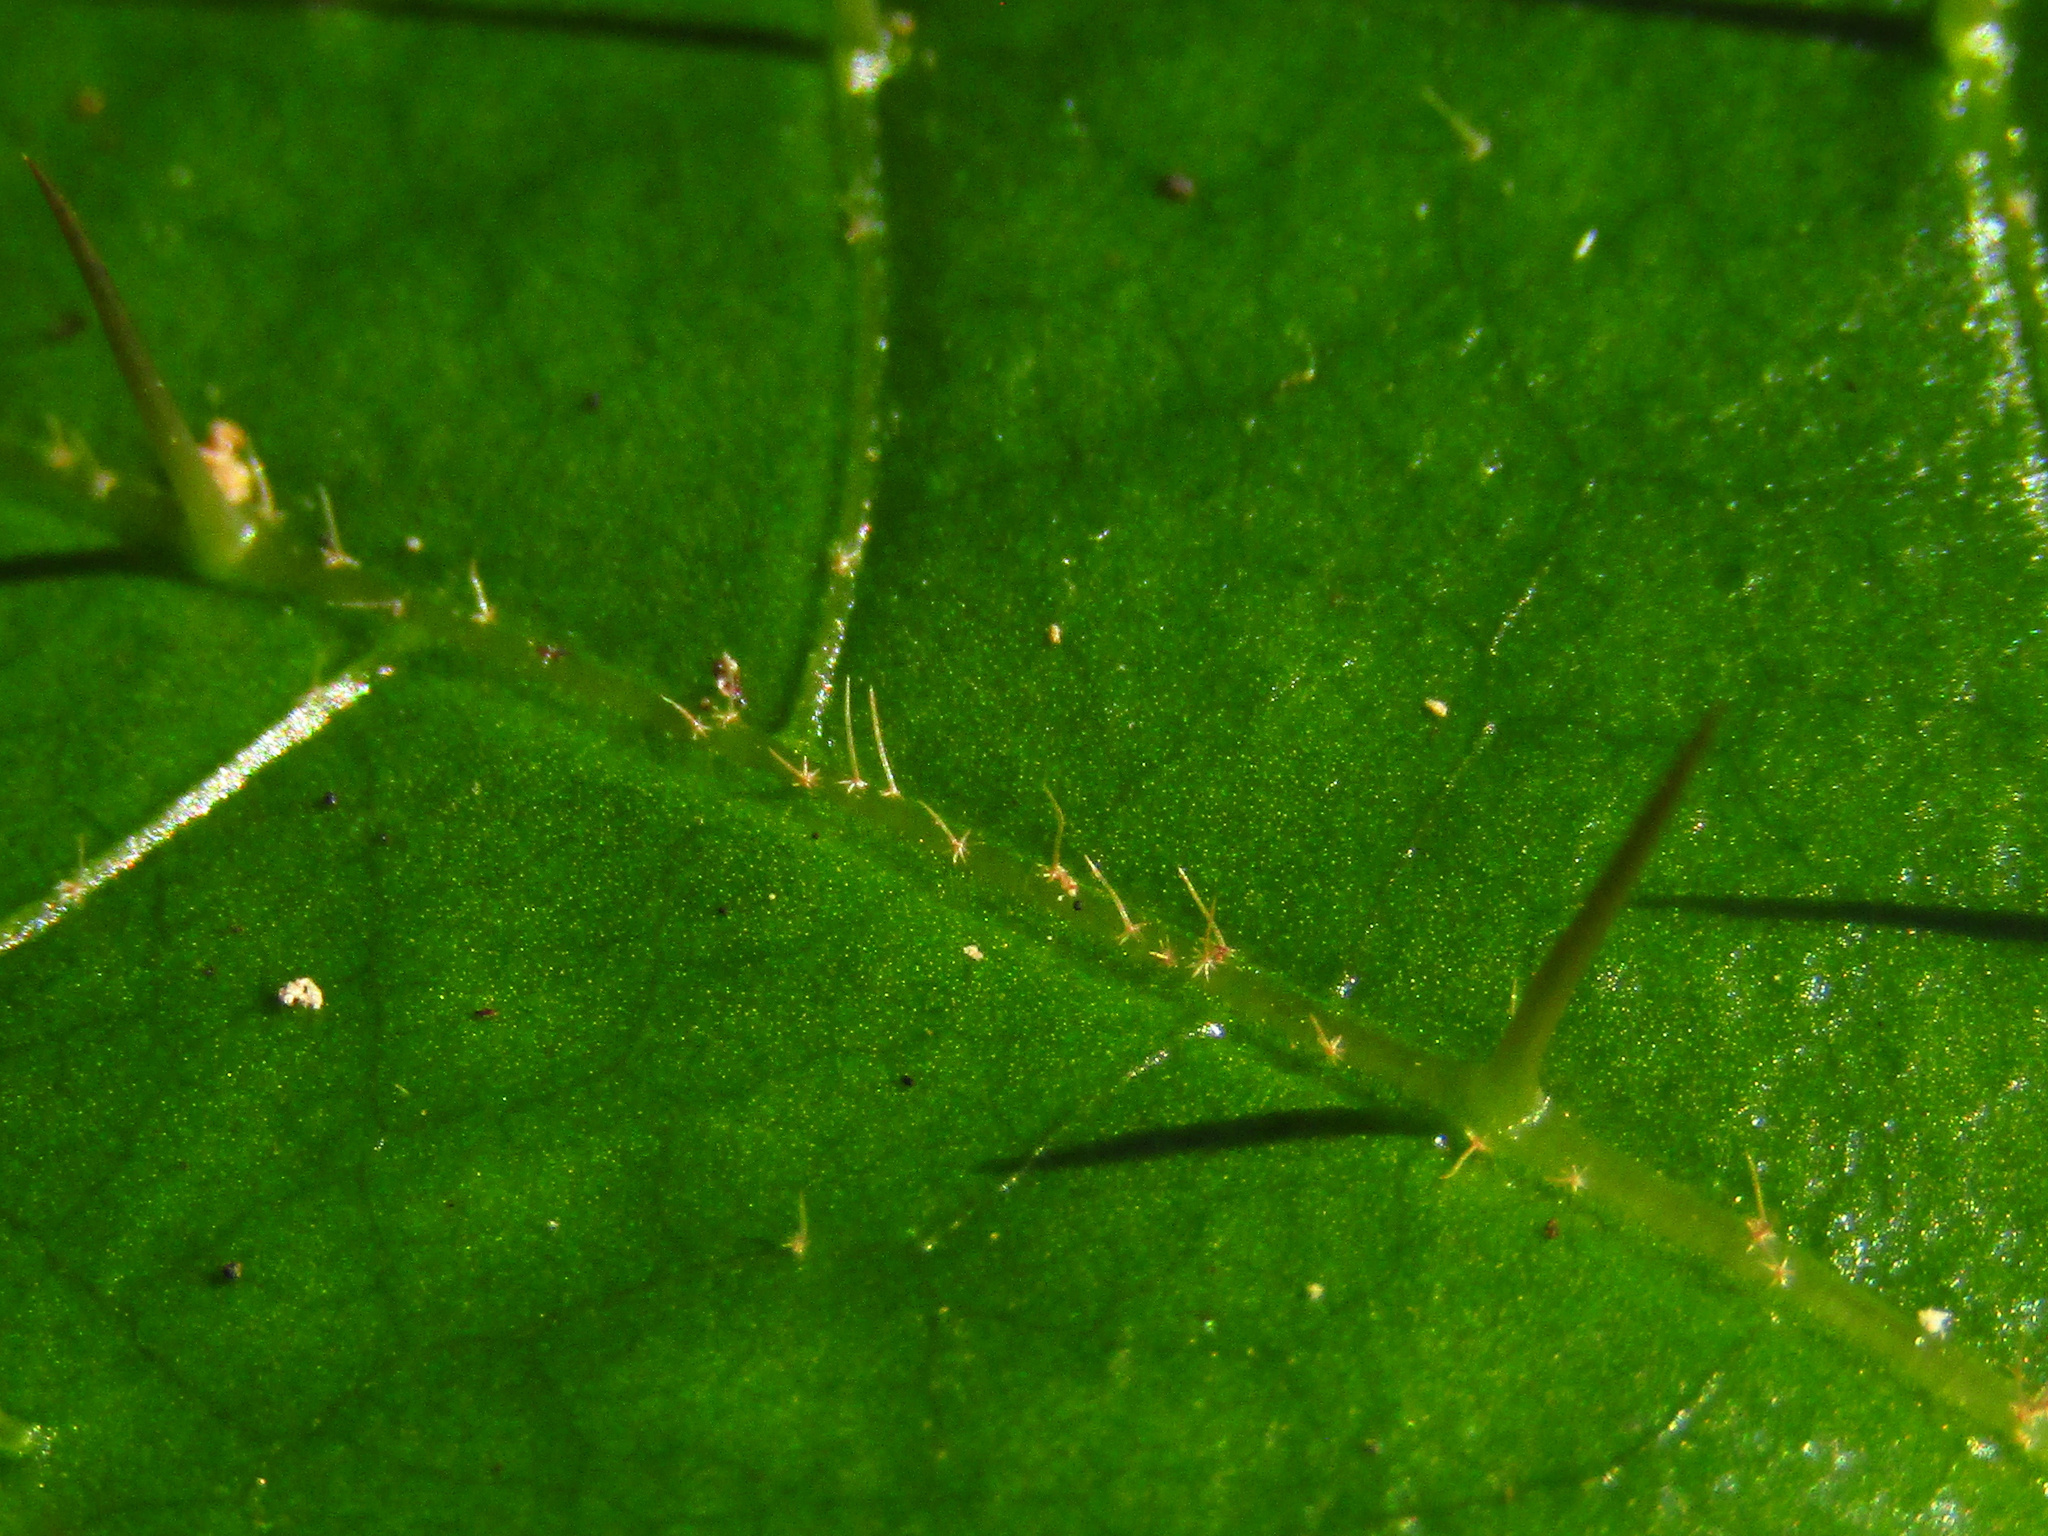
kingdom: Plantae
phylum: Tracheophyta
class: Magnoliopsida
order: Solanales
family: Solanaceae
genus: Solanum
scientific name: Solanum acanthodapis
